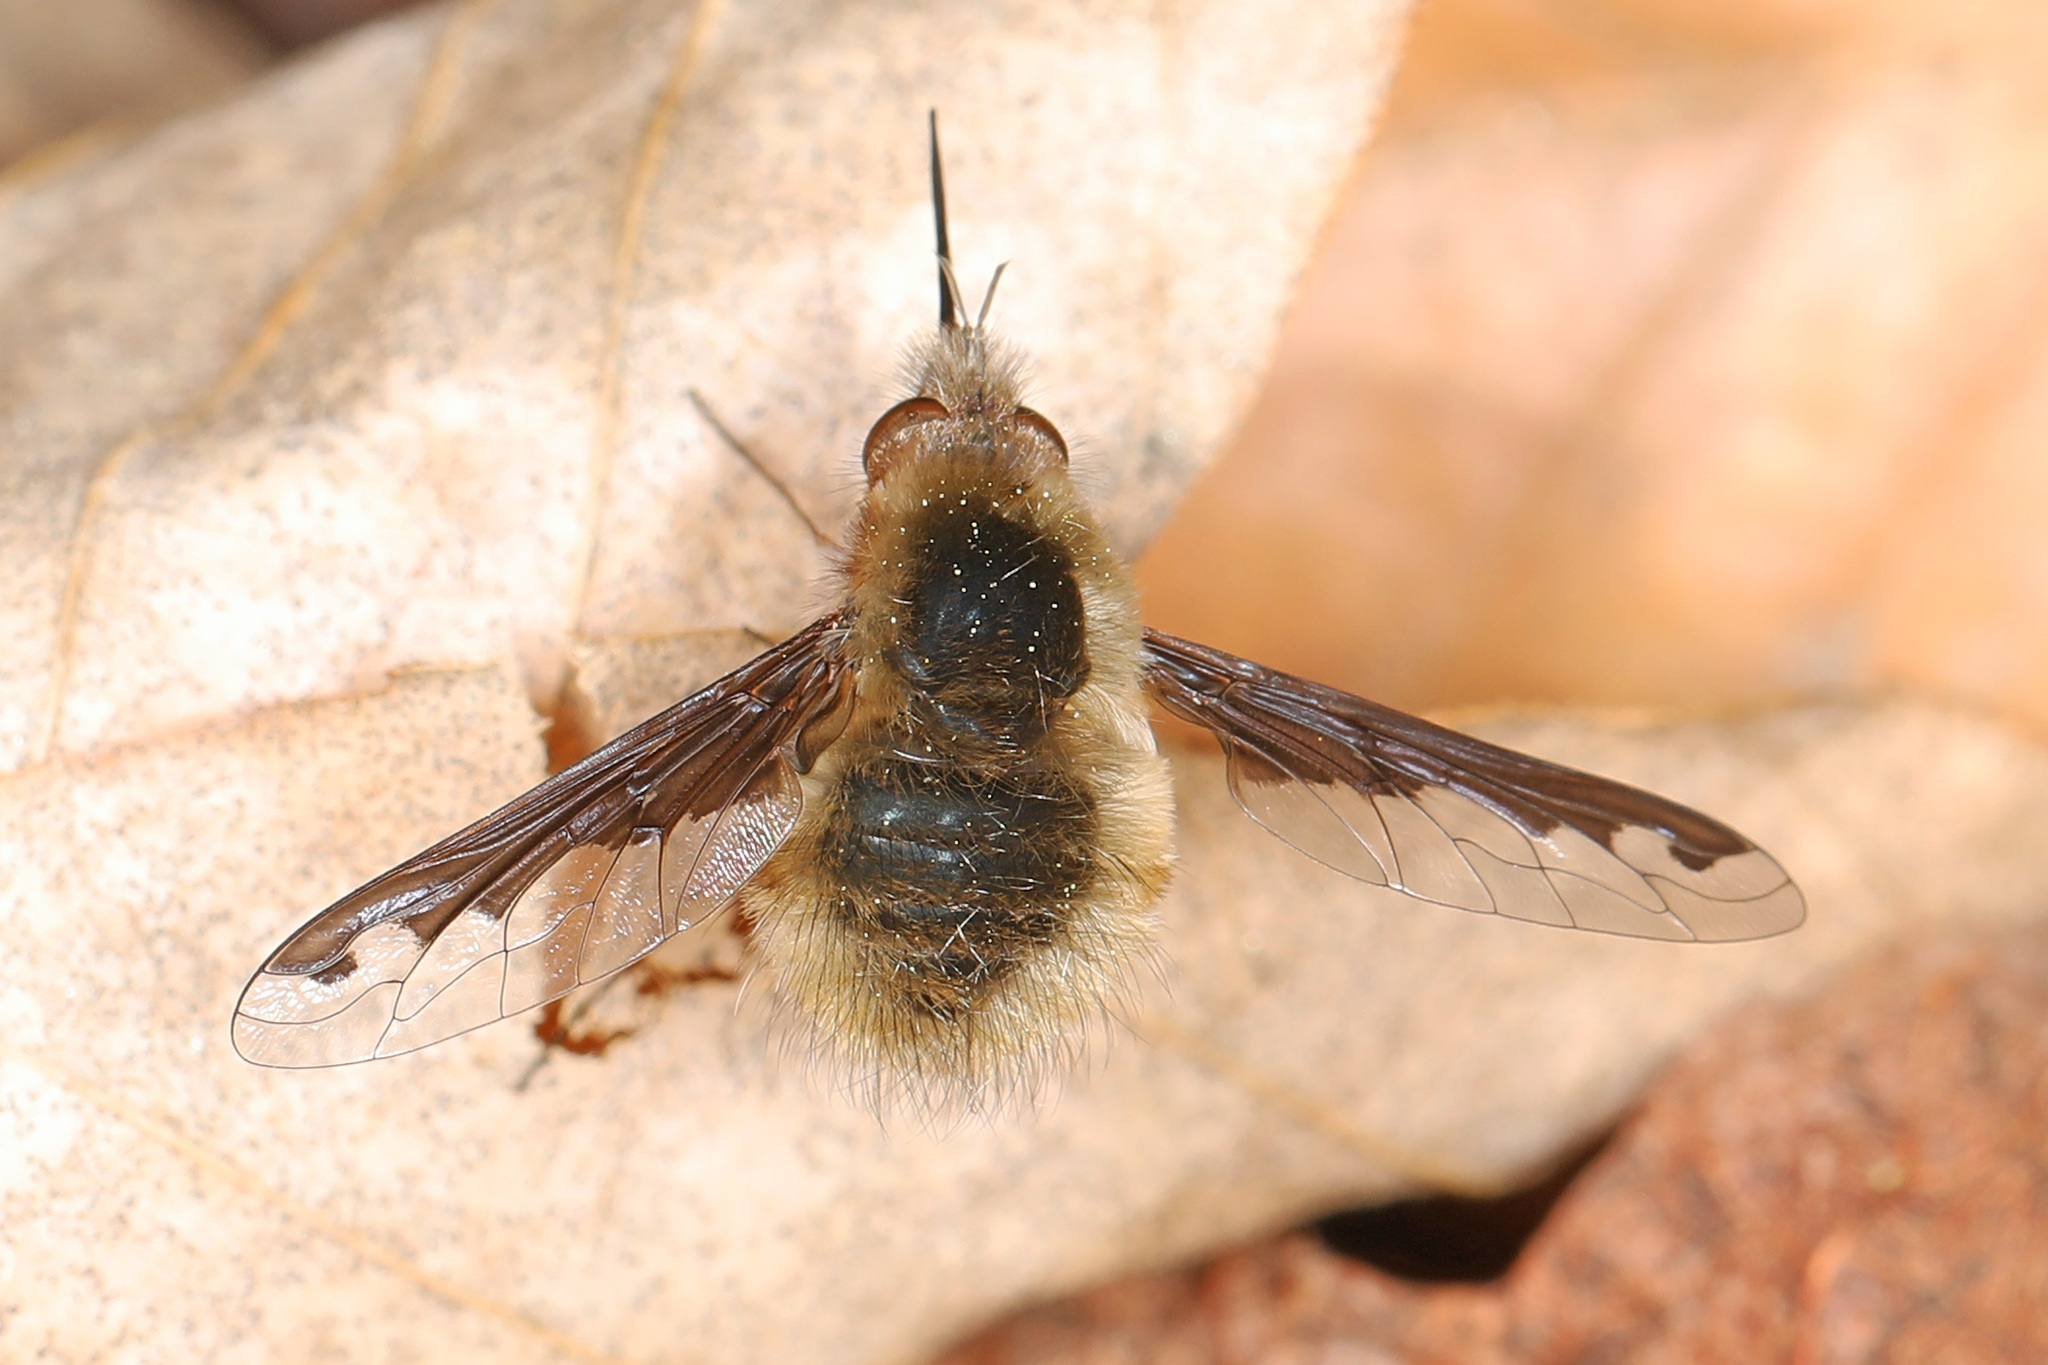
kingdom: Animalia
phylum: Arthropoda
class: Insecta
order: Diptera
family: Bombyliidae
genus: Bombylius
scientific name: Bombylius major
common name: Bee fly
